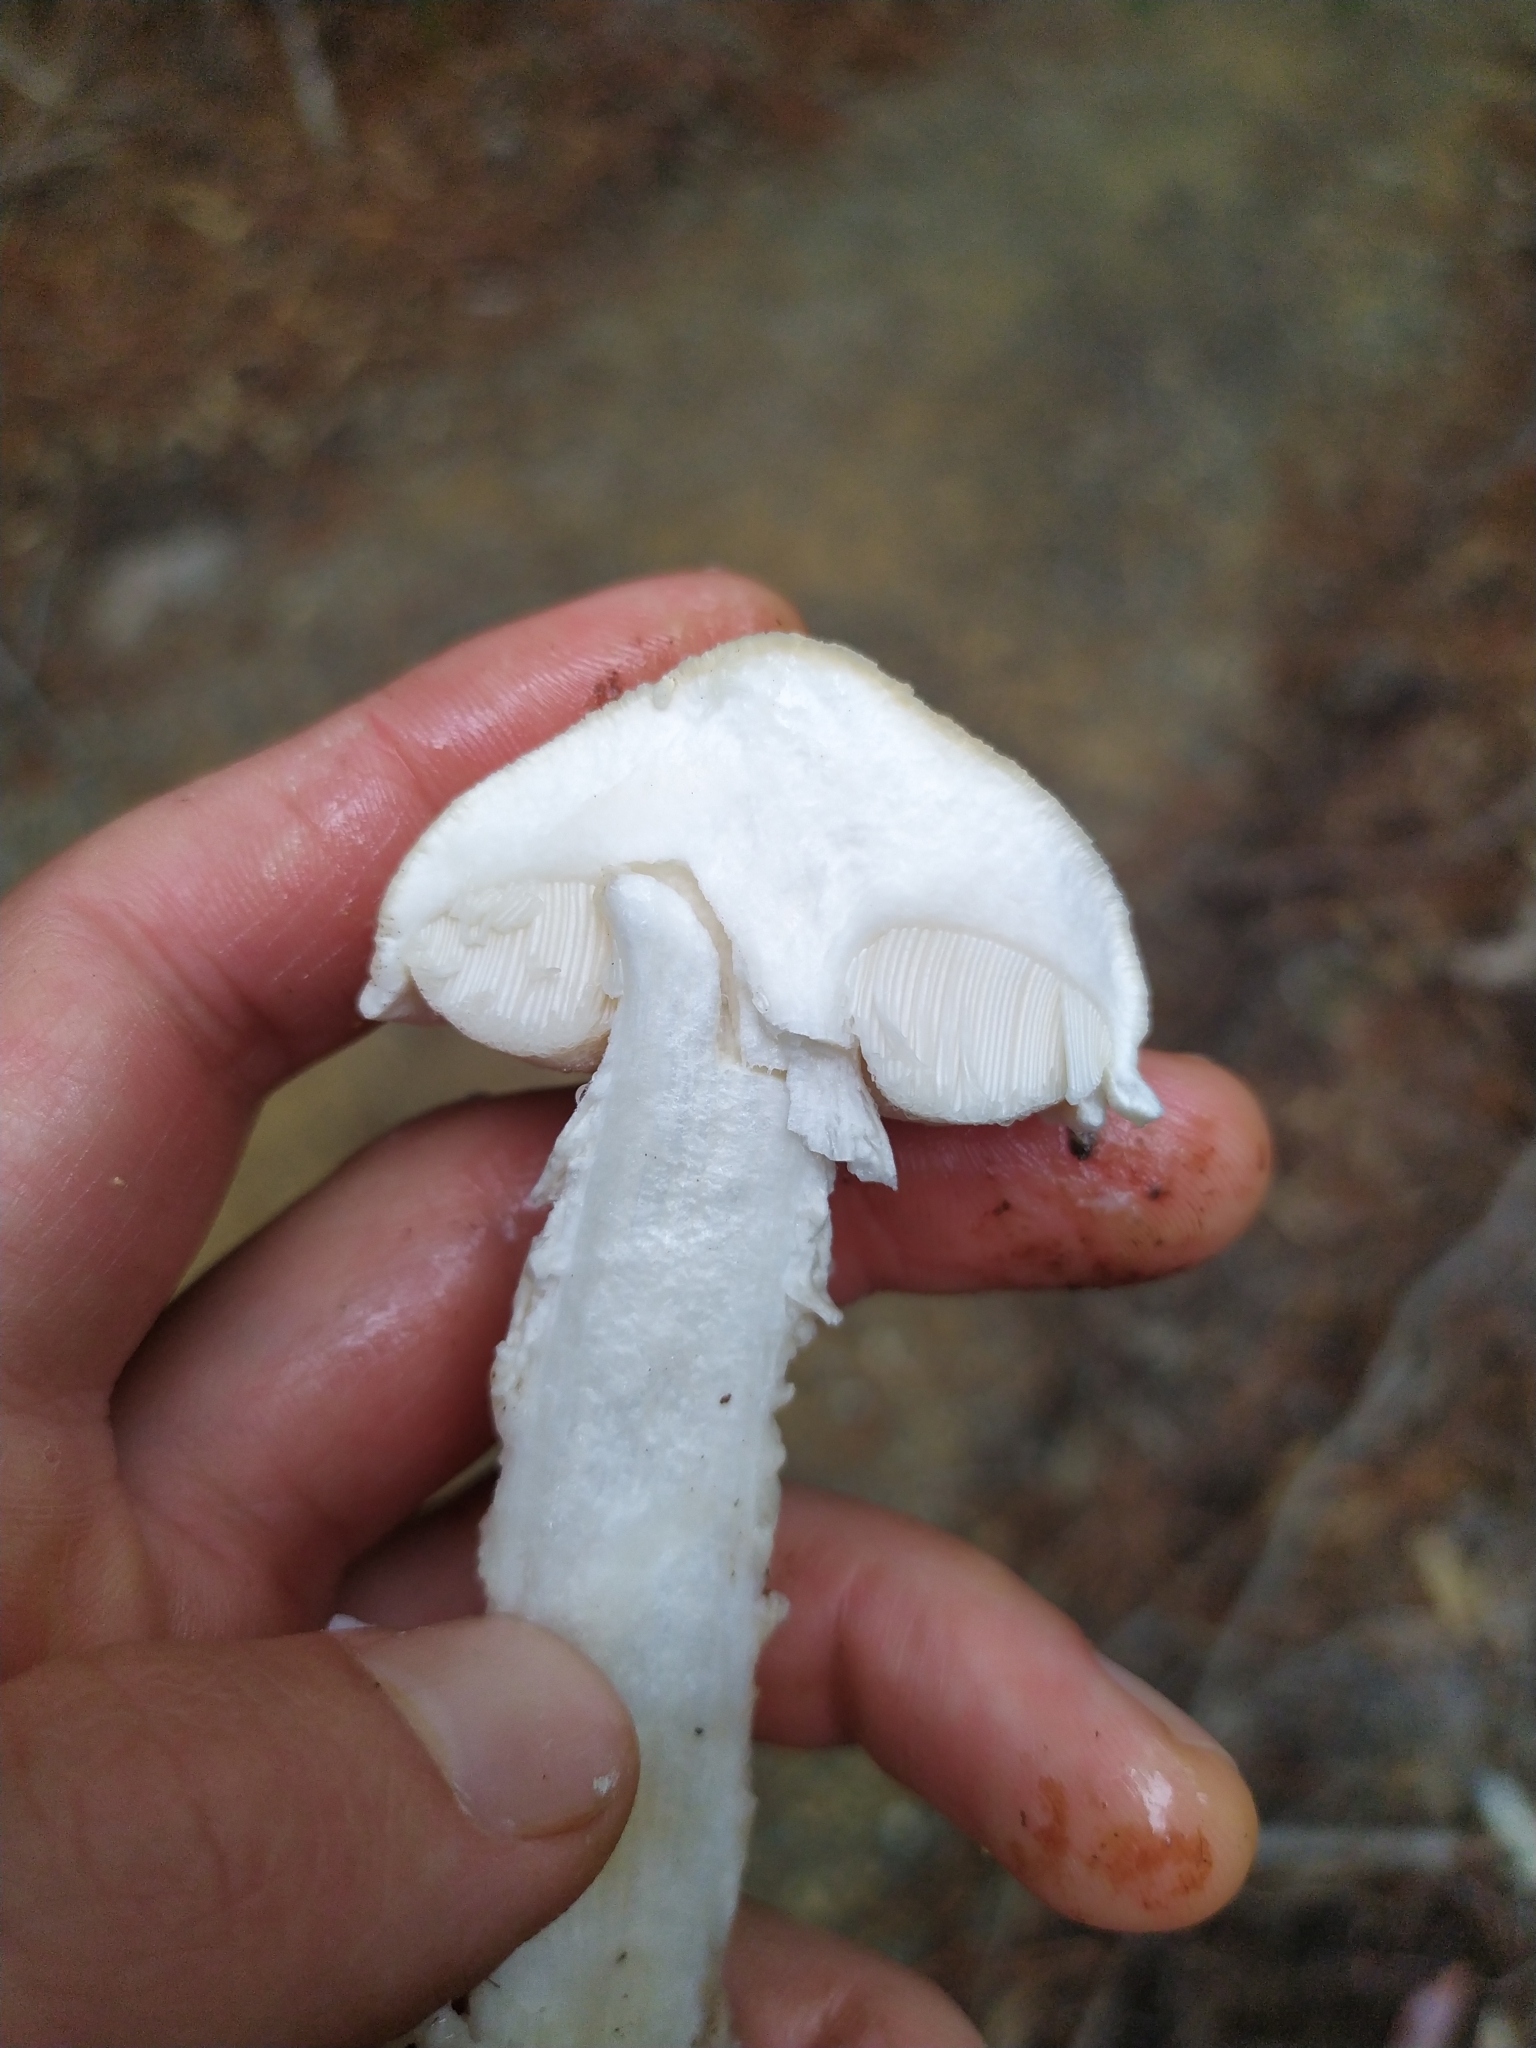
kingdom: Fungi
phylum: Basidiomycota
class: Agaricomycetes
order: Boletales
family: Boletaceae
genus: Fistulinella
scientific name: Fistulinella nivea
